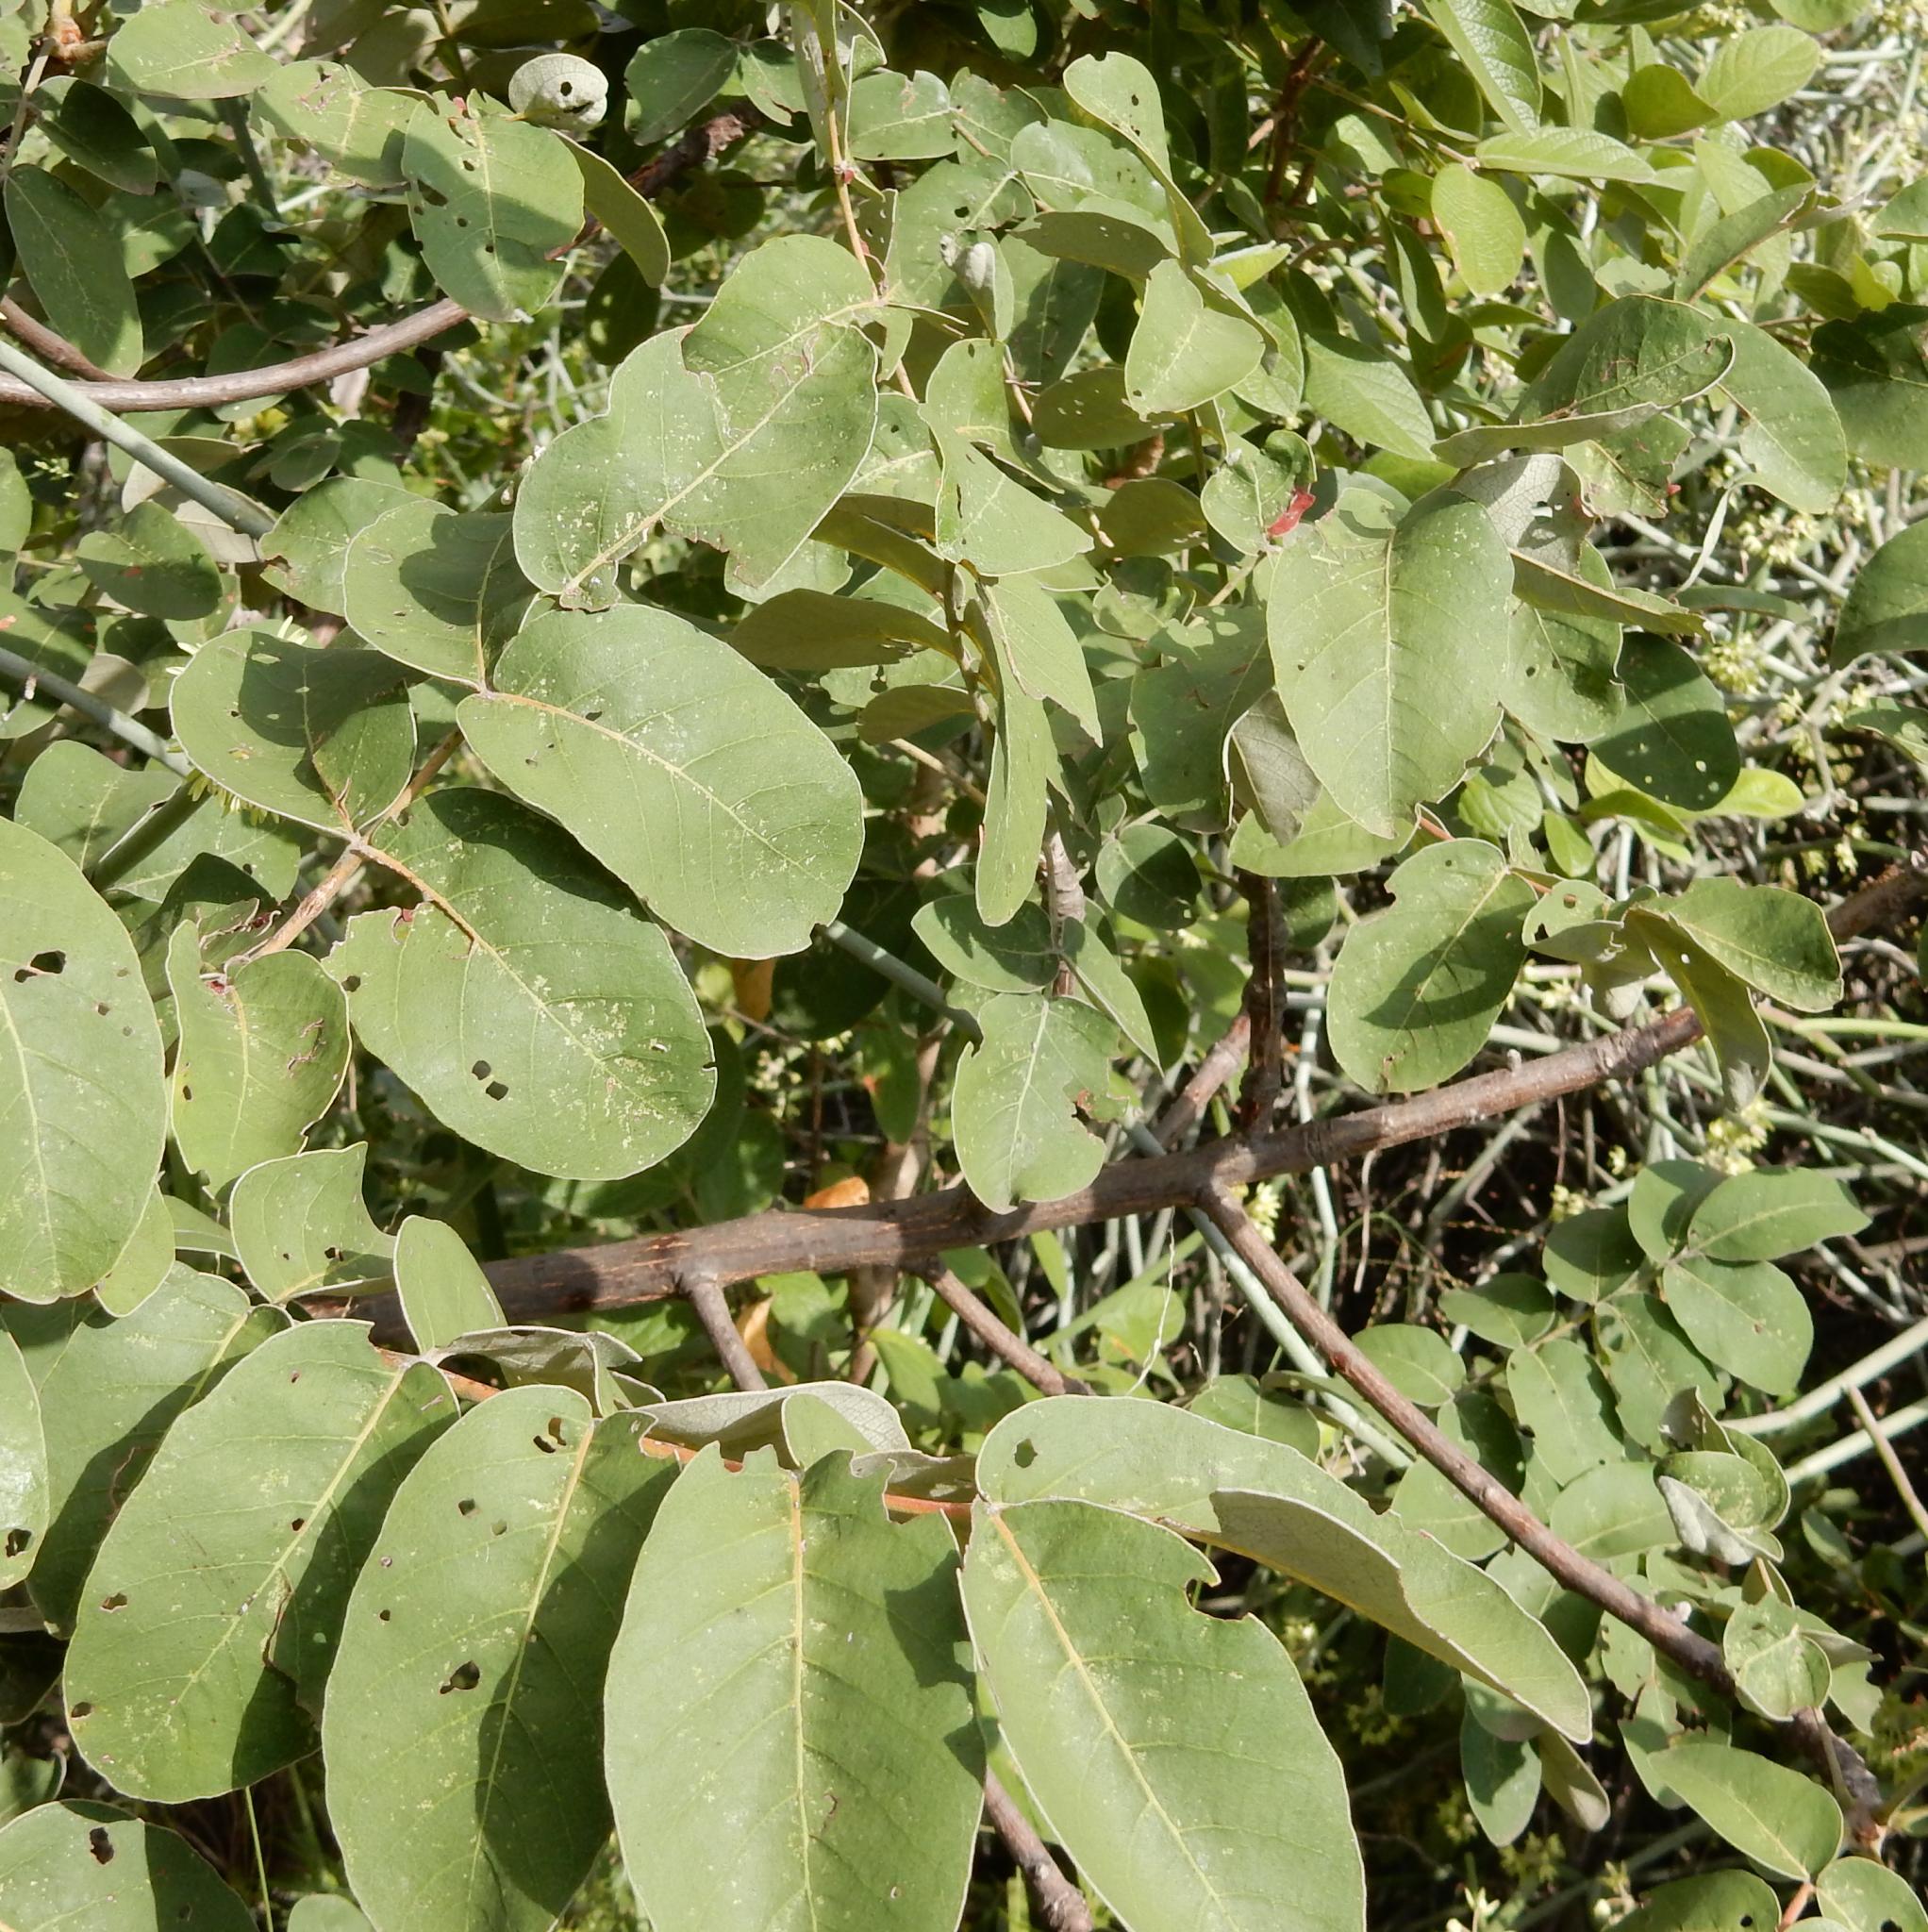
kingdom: Plantae
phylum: Tracheophyta
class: Magnoliopsida
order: Sapindales
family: Anacardiaceae
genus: Lannea
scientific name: Lannea discolor
